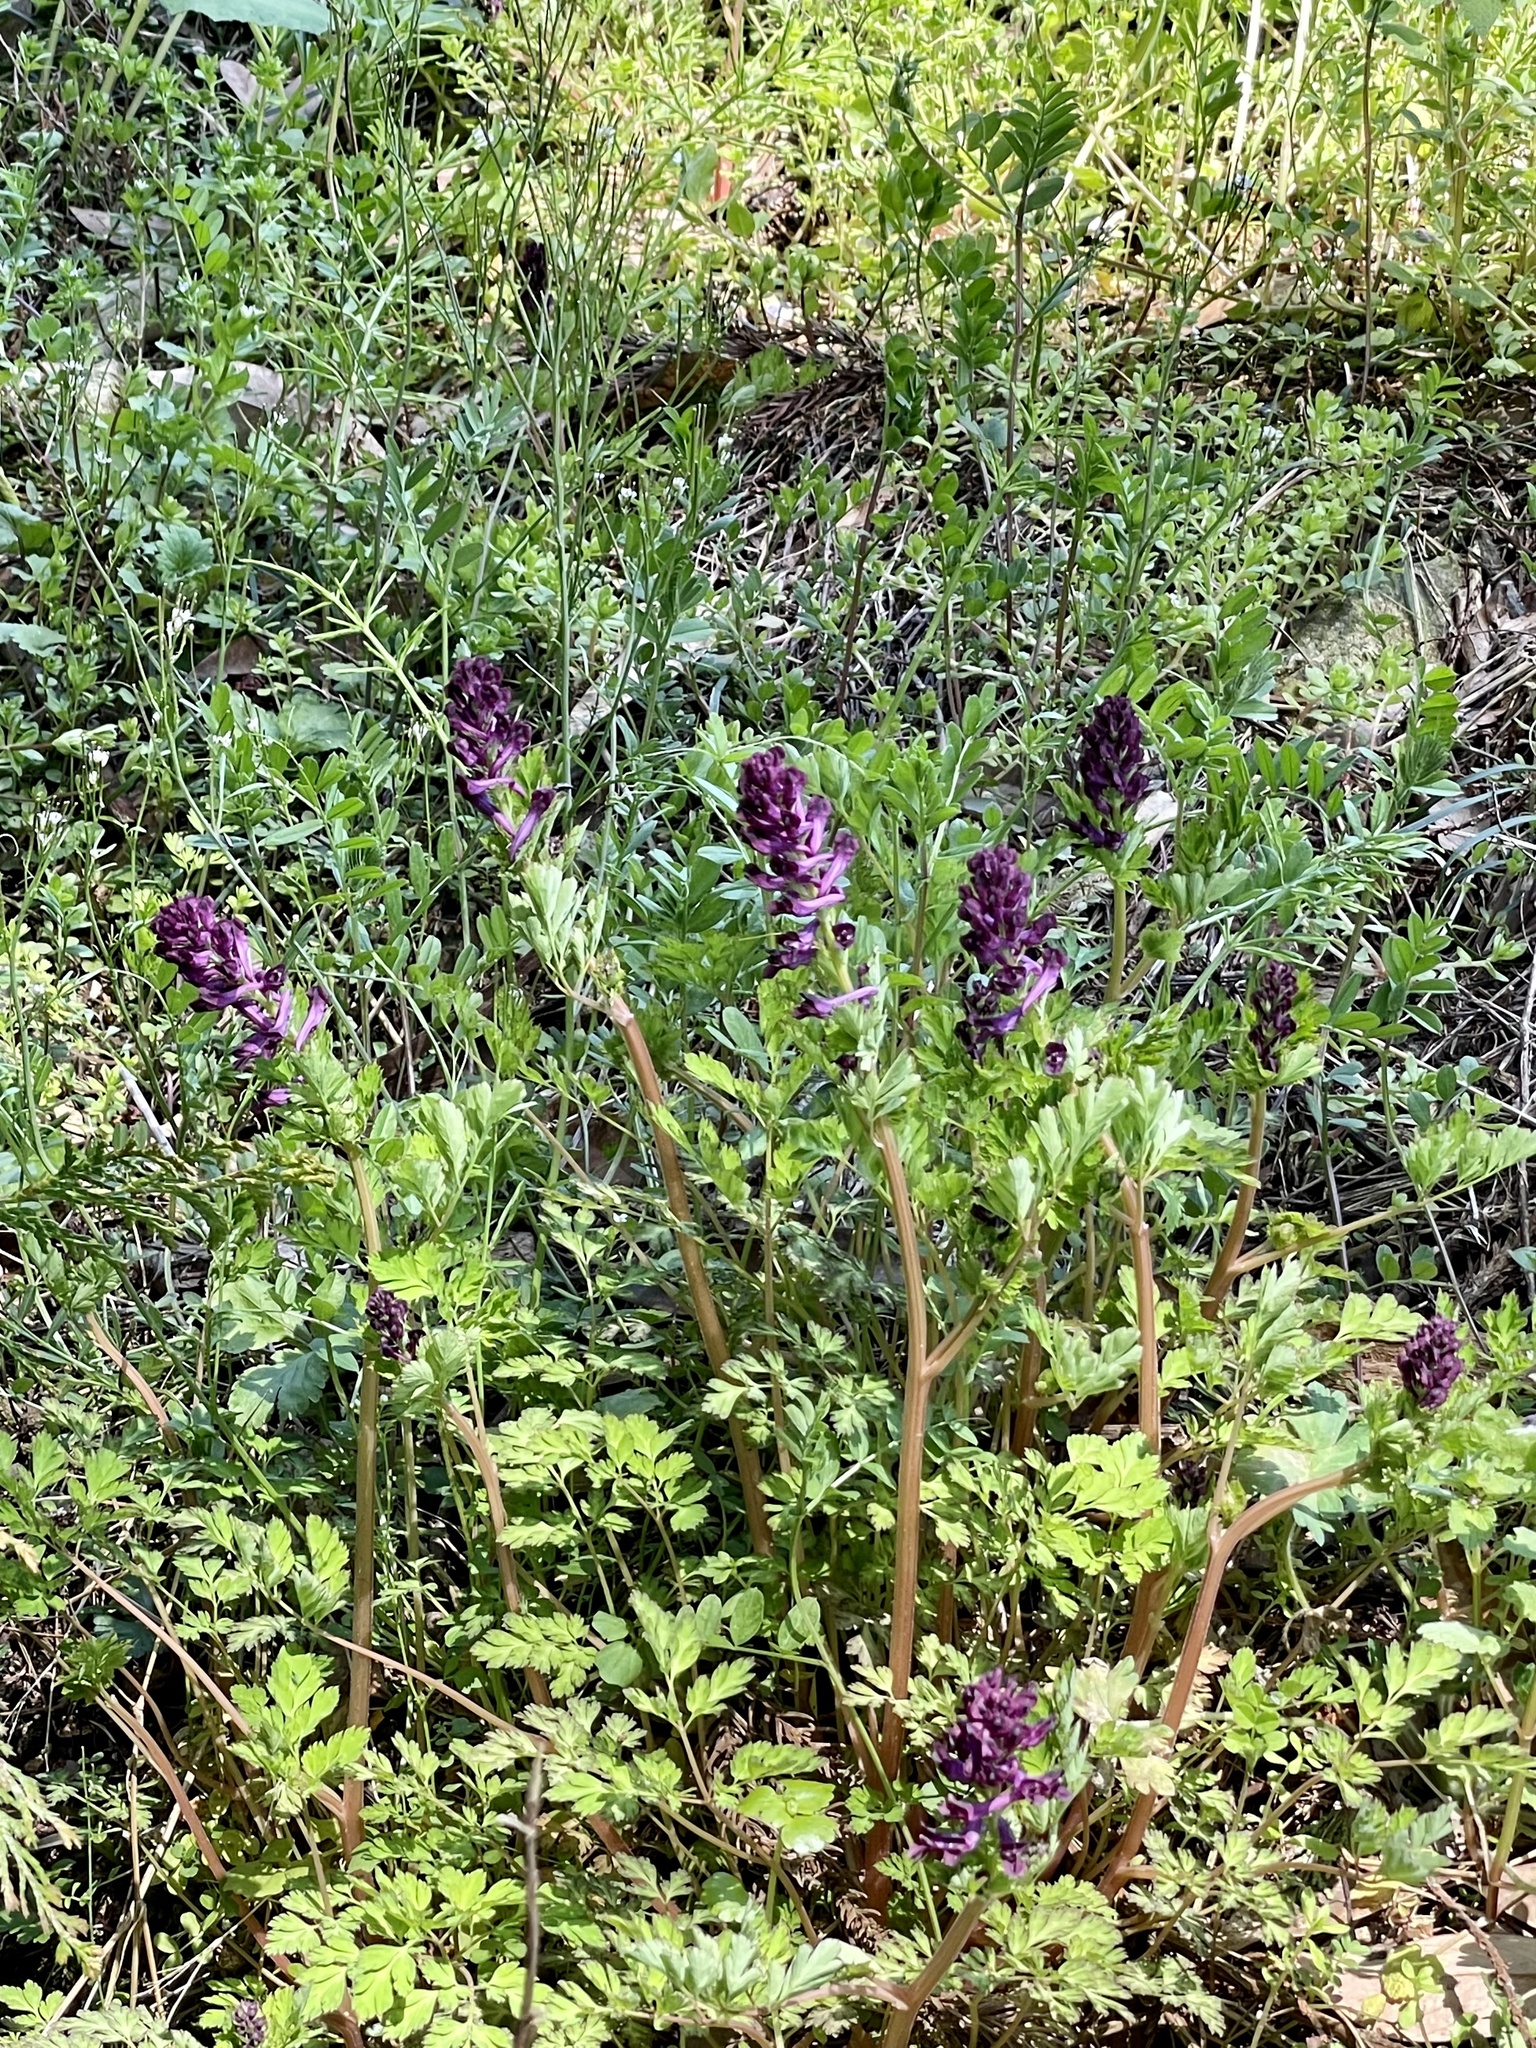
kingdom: Plantae
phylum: Tracheophyta
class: Magnoliopsida
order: Ranunculales
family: Papaveraceae
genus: Corydalis
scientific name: Corydalis incisa
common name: Incised fumewort
